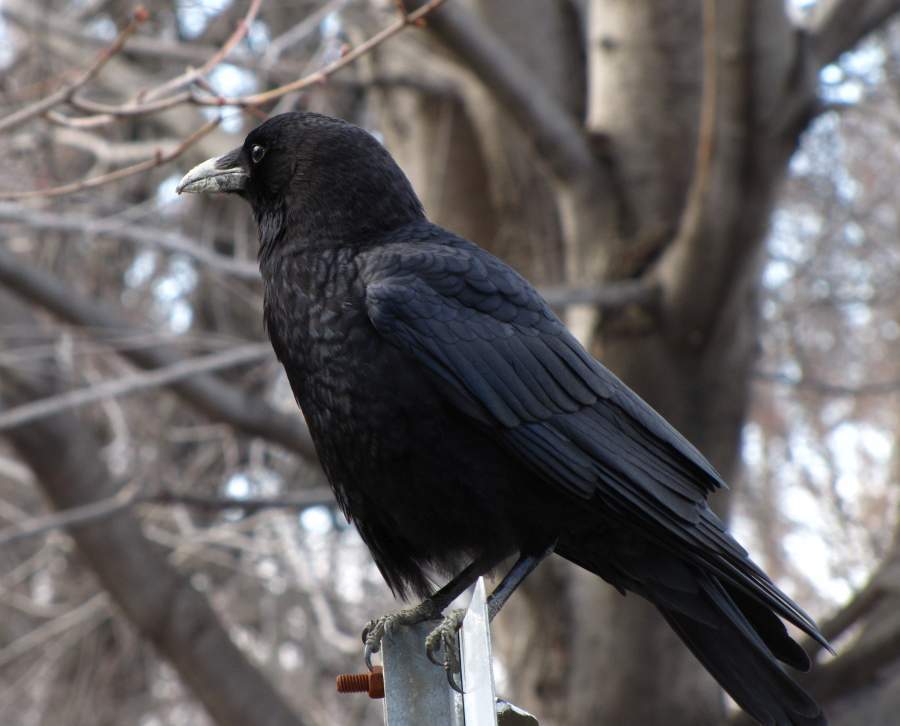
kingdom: Animalia
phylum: Chordata
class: Aves
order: Passeriformes
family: Corvidae
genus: Corvus
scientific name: Corvus brachyrhynchos
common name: American crow
